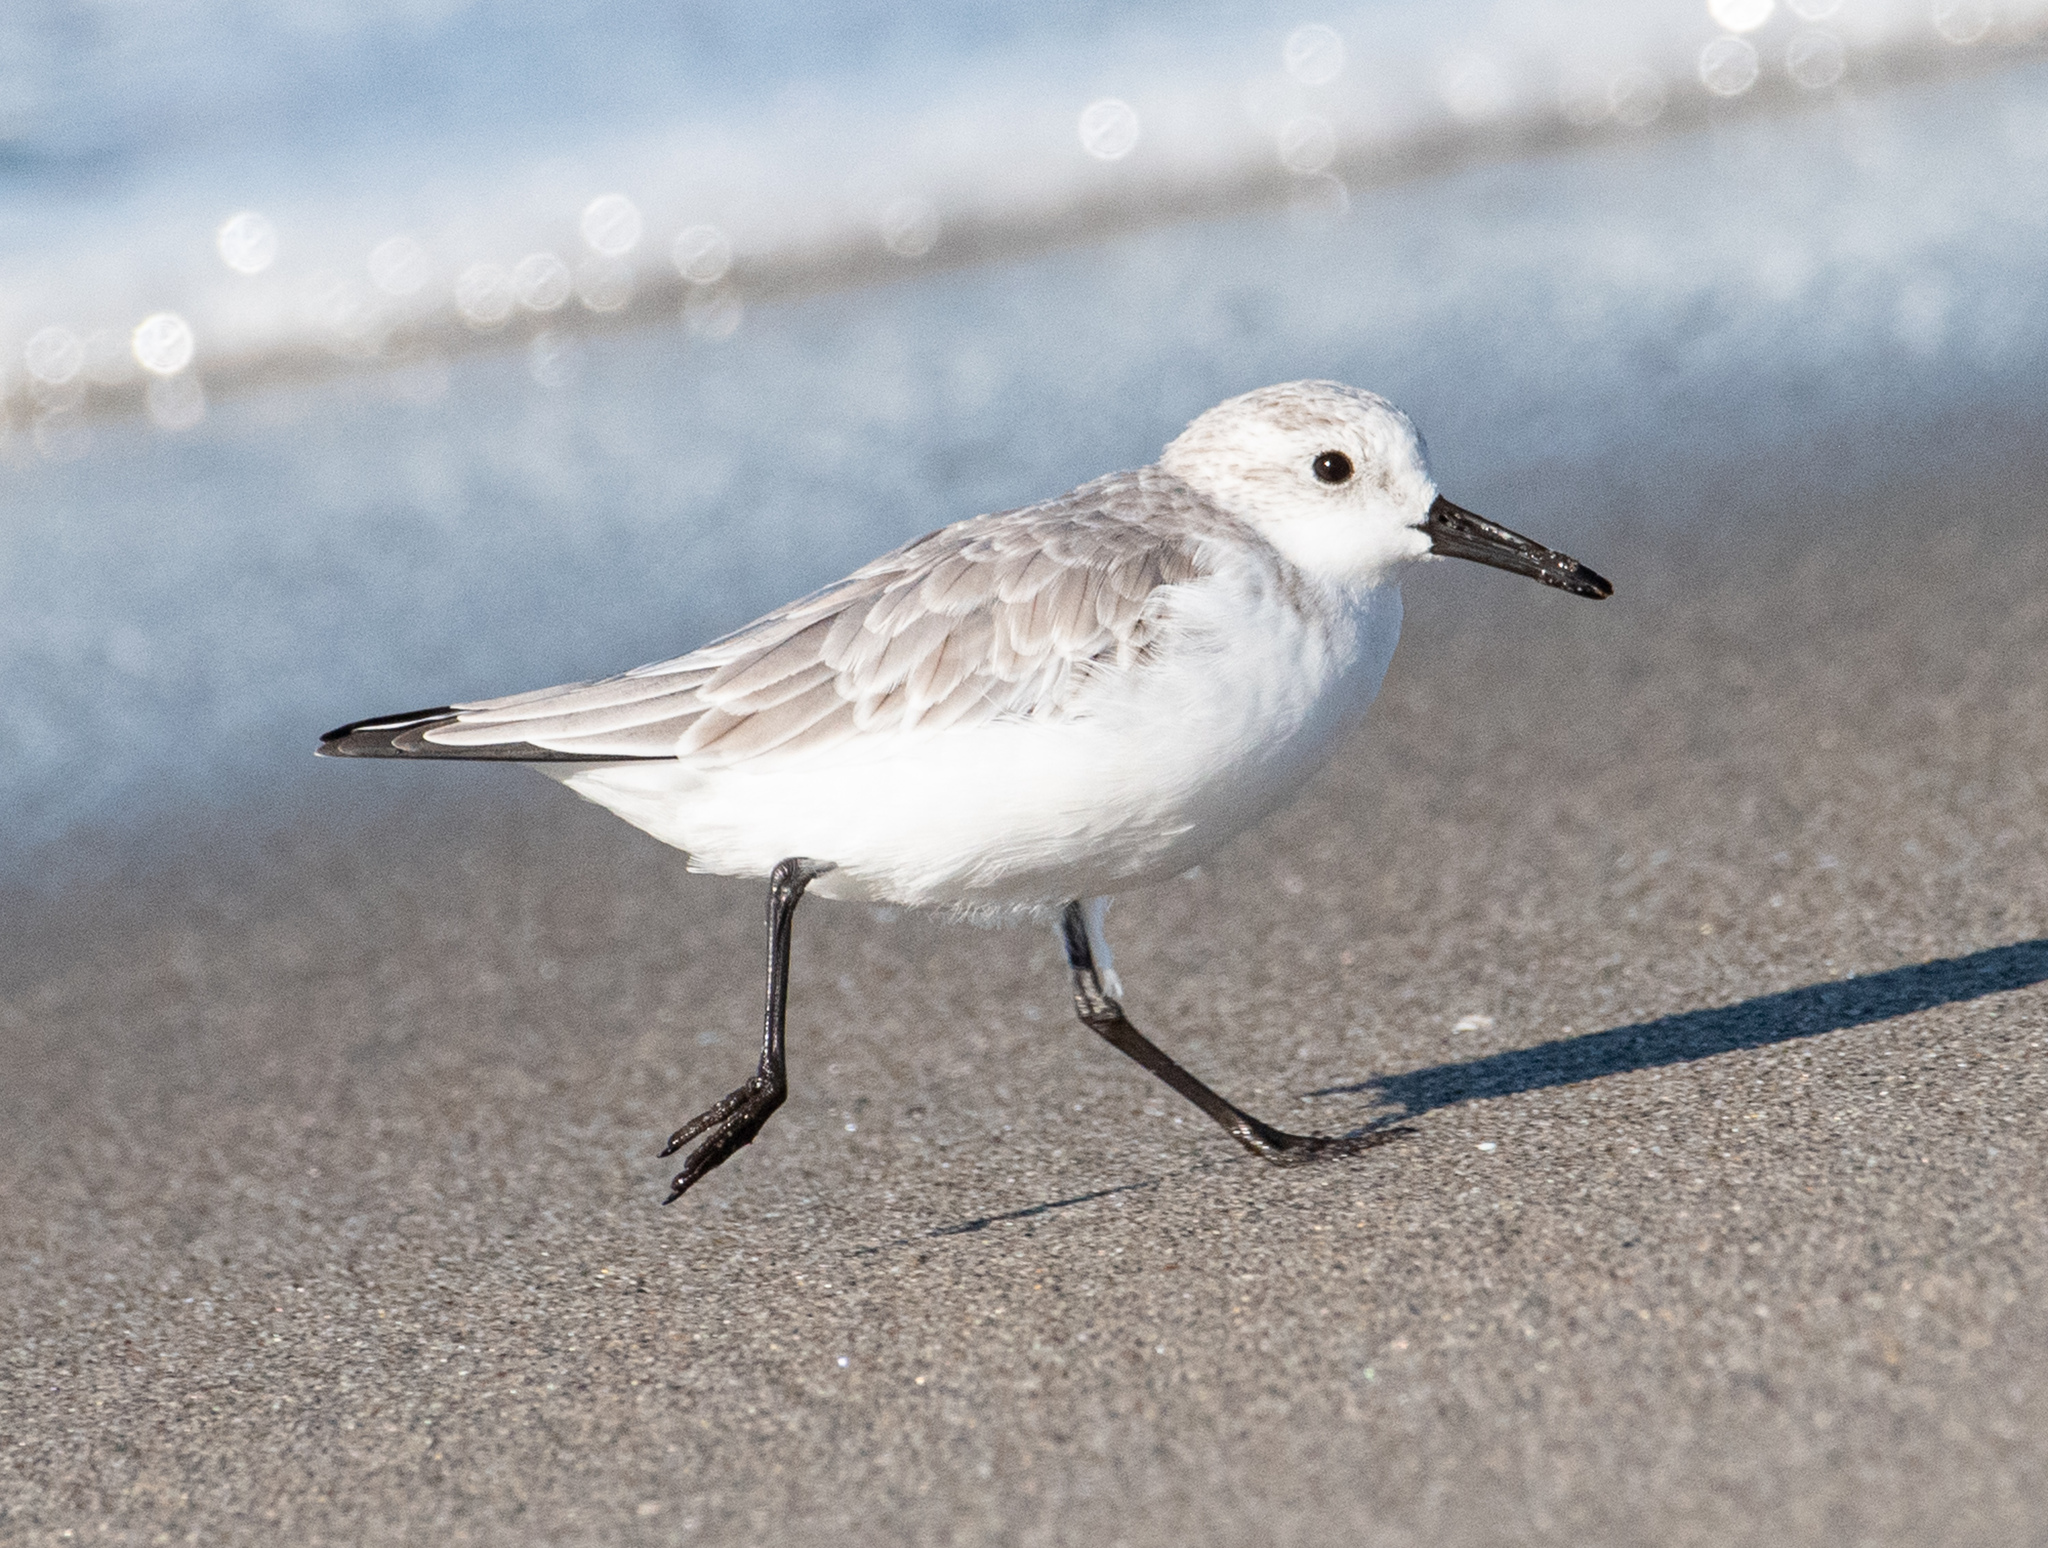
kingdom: Animalia
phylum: Chordata
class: Aves
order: Charadriiformes
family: Scolopacidae
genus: Calidris
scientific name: Calidris alba
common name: Sanderling
